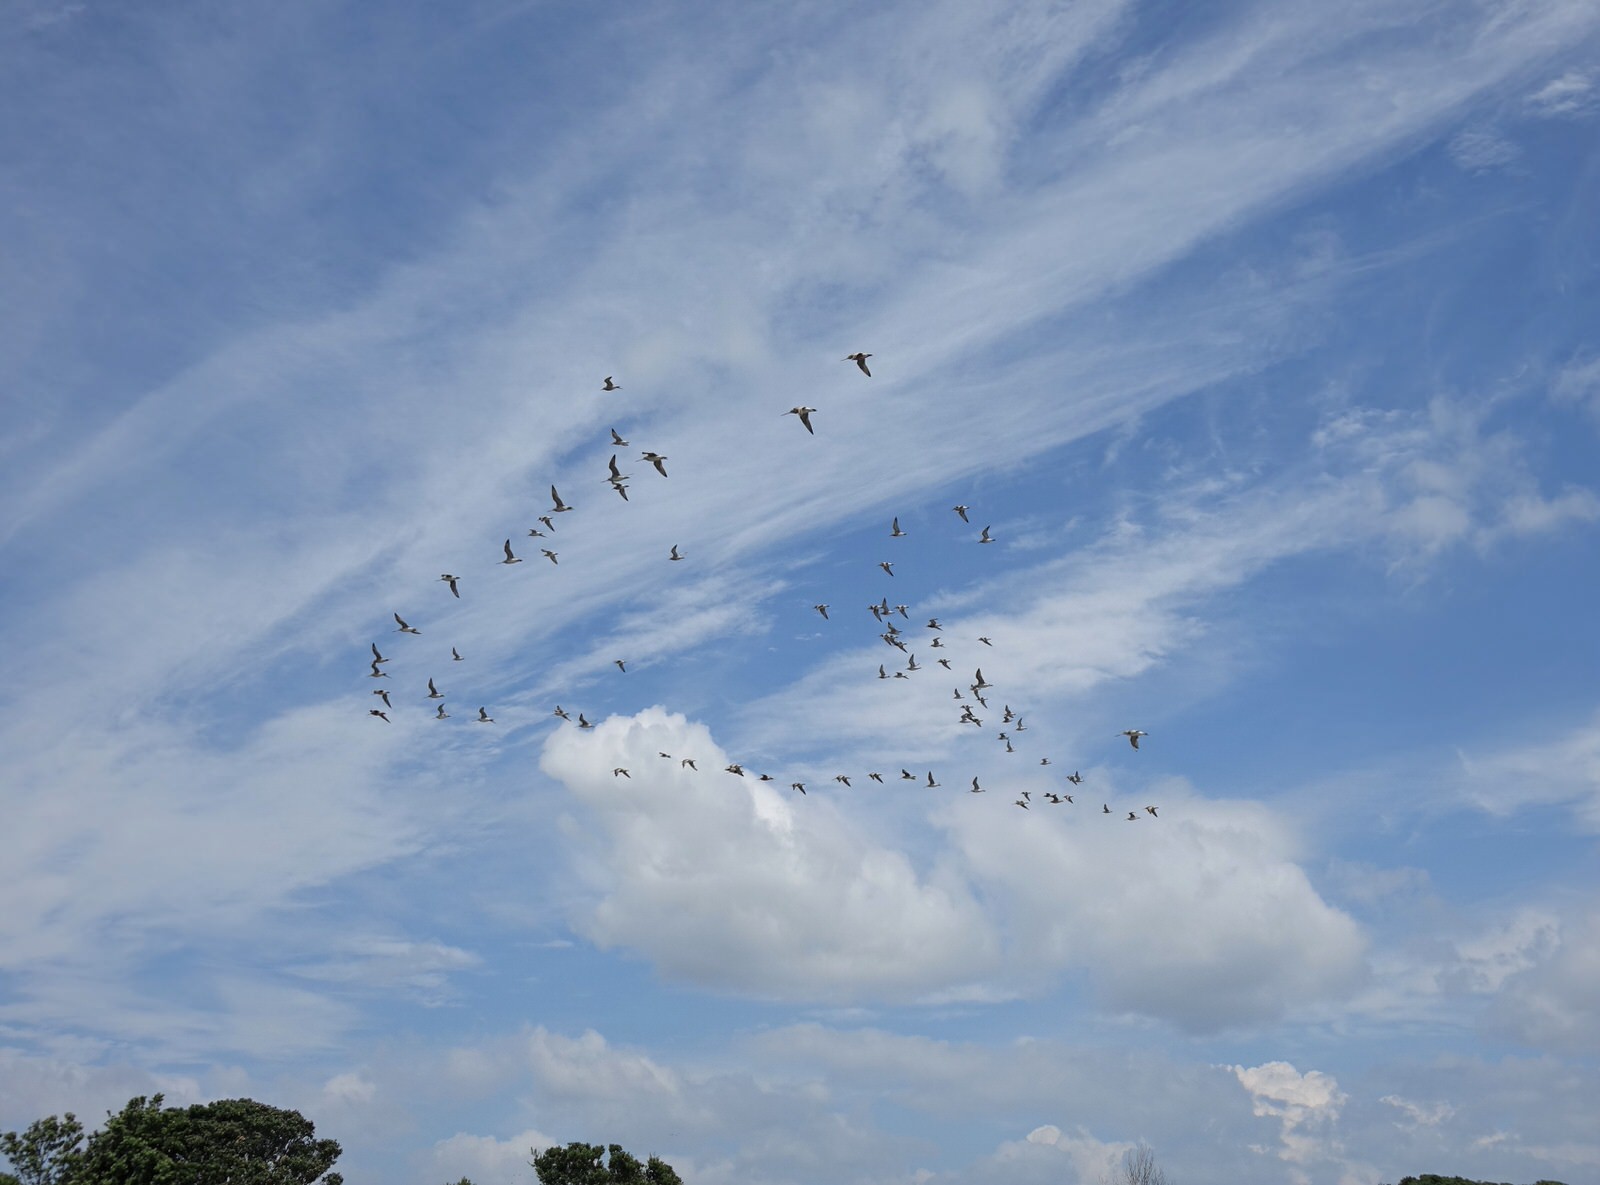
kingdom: Animalia
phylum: Chordata
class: Aves
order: Charadriiformes
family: Scolopacidae
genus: Limosa
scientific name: Limosa lapponica
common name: Bar-tailed godwit
